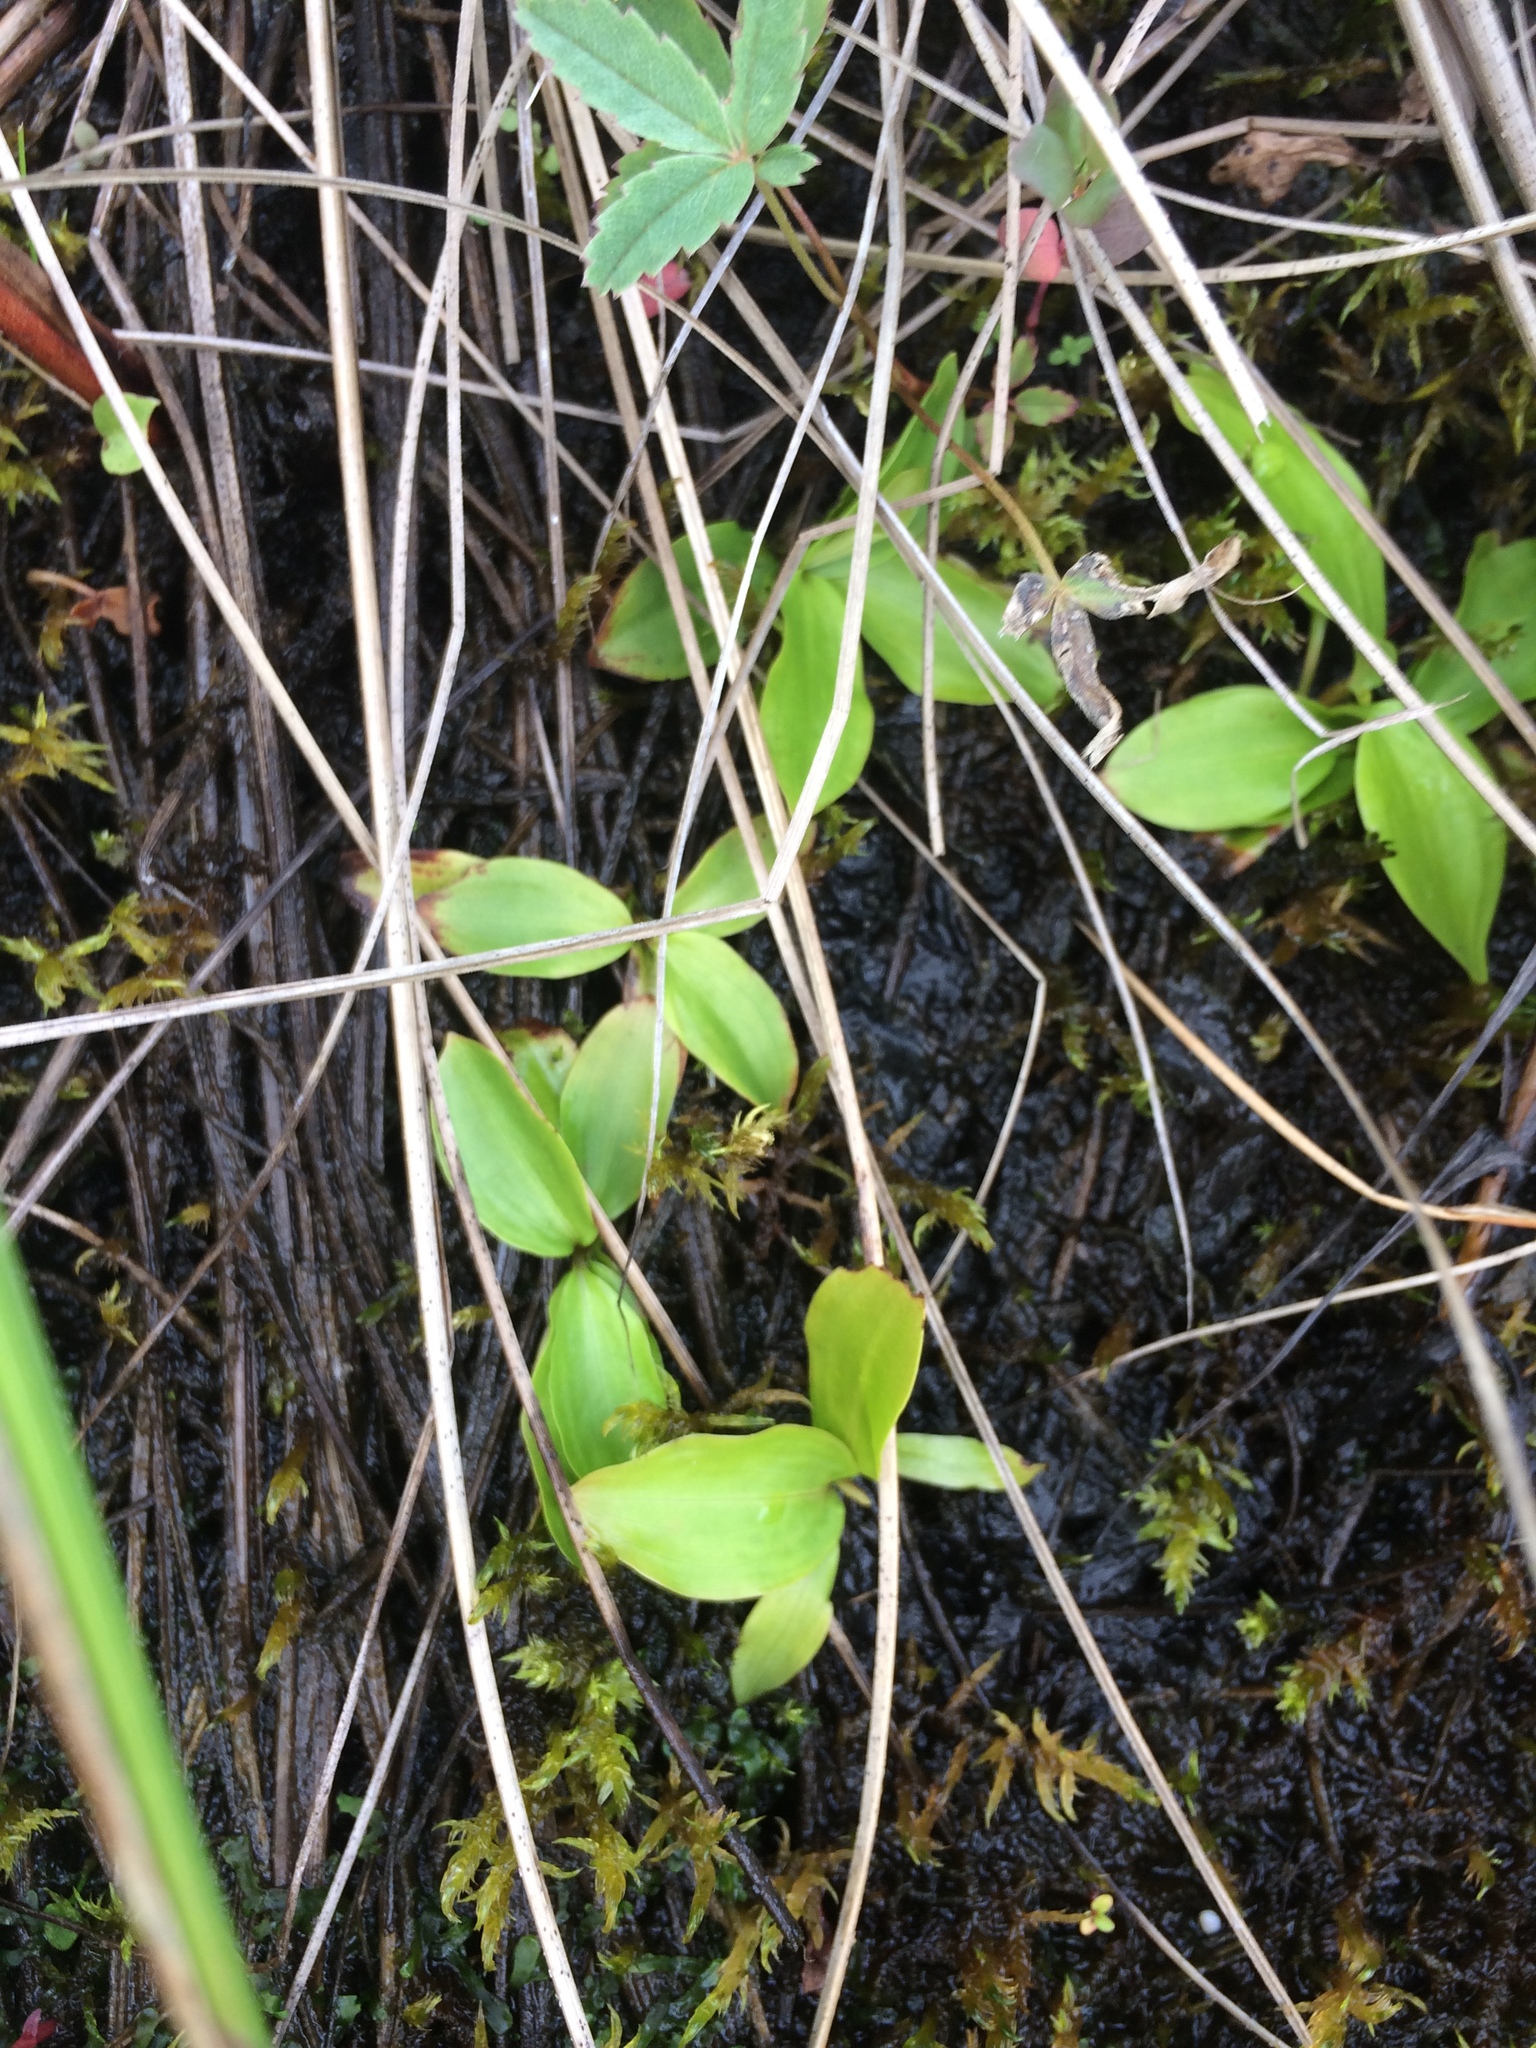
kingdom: Plantae
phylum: Tracheophyta
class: Liliopsida
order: Asparagales
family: Asparagaceae
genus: Maianthemum
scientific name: Maianthemum trifolium
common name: Swamp false solomon's seal
